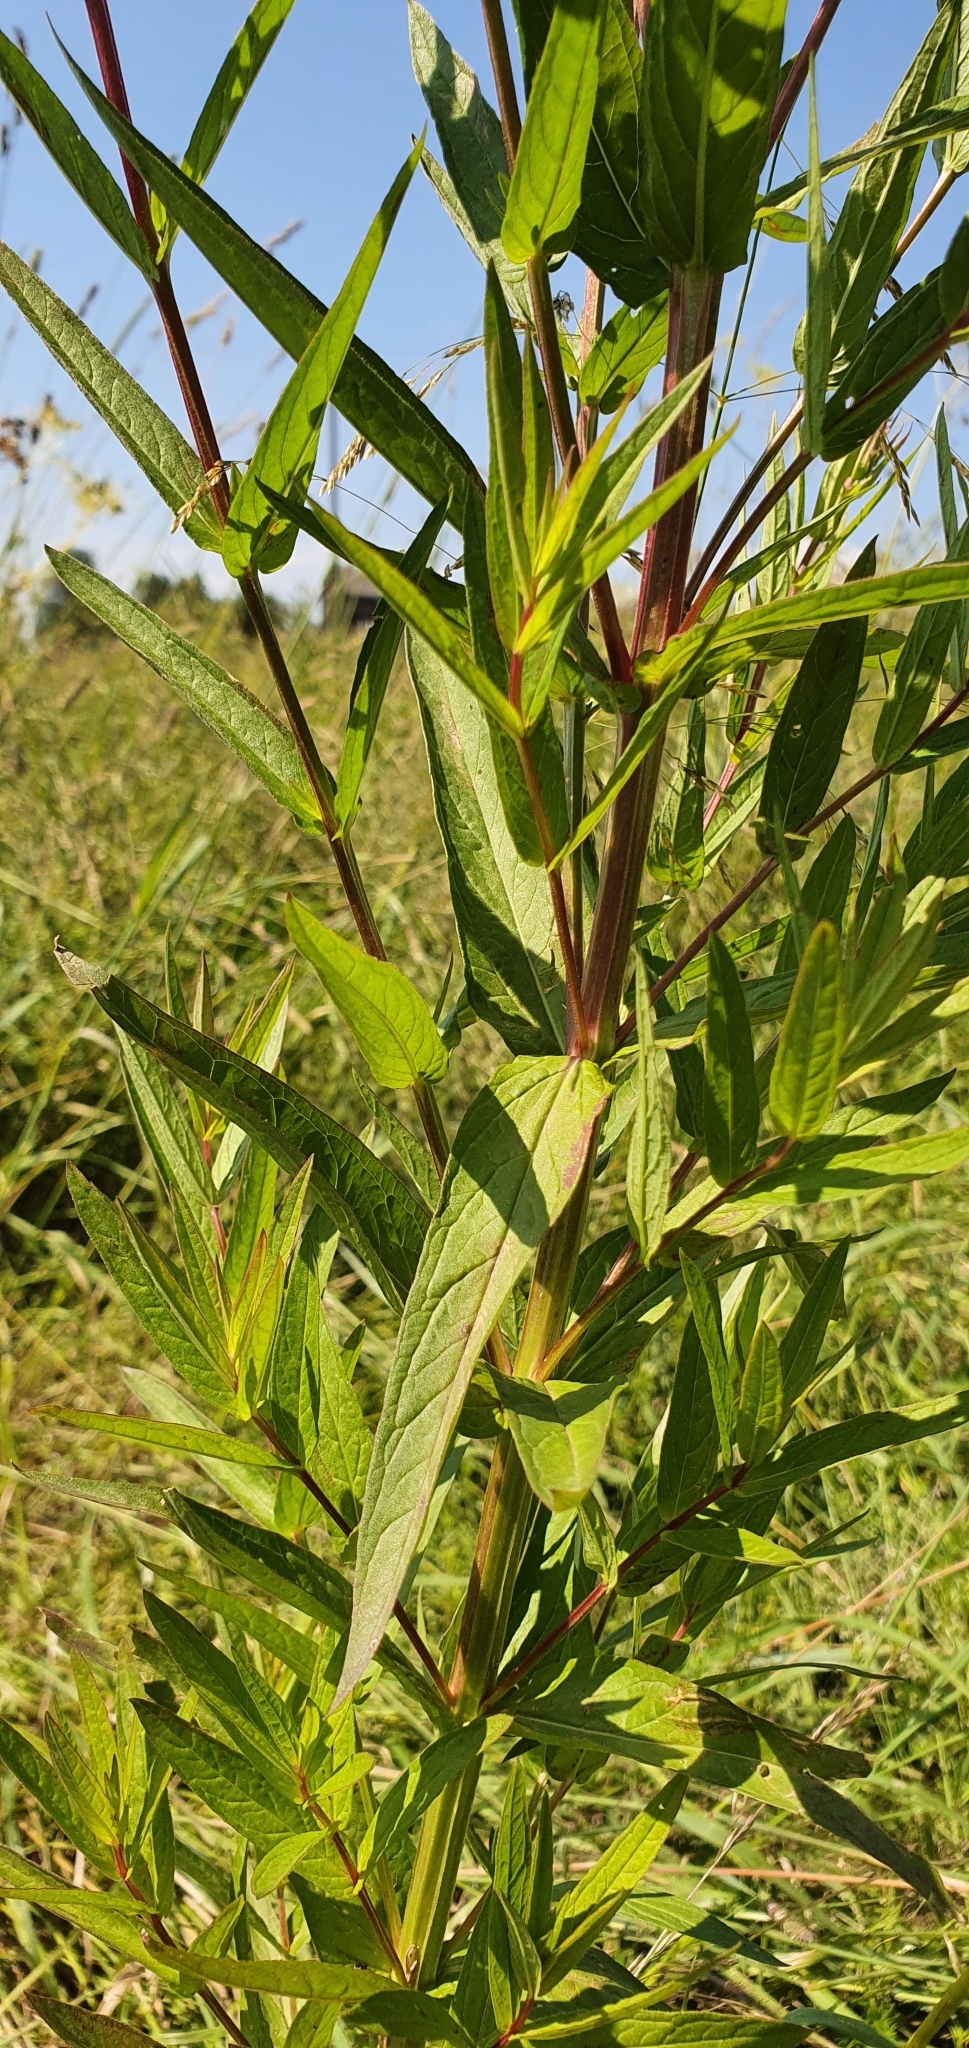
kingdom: Plantae
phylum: Tracheophyta
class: Magnoliopsida
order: Myrtales
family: Lythraceae
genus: Lythrum
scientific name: Lythrum salicaria
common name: Purple loosestrife
